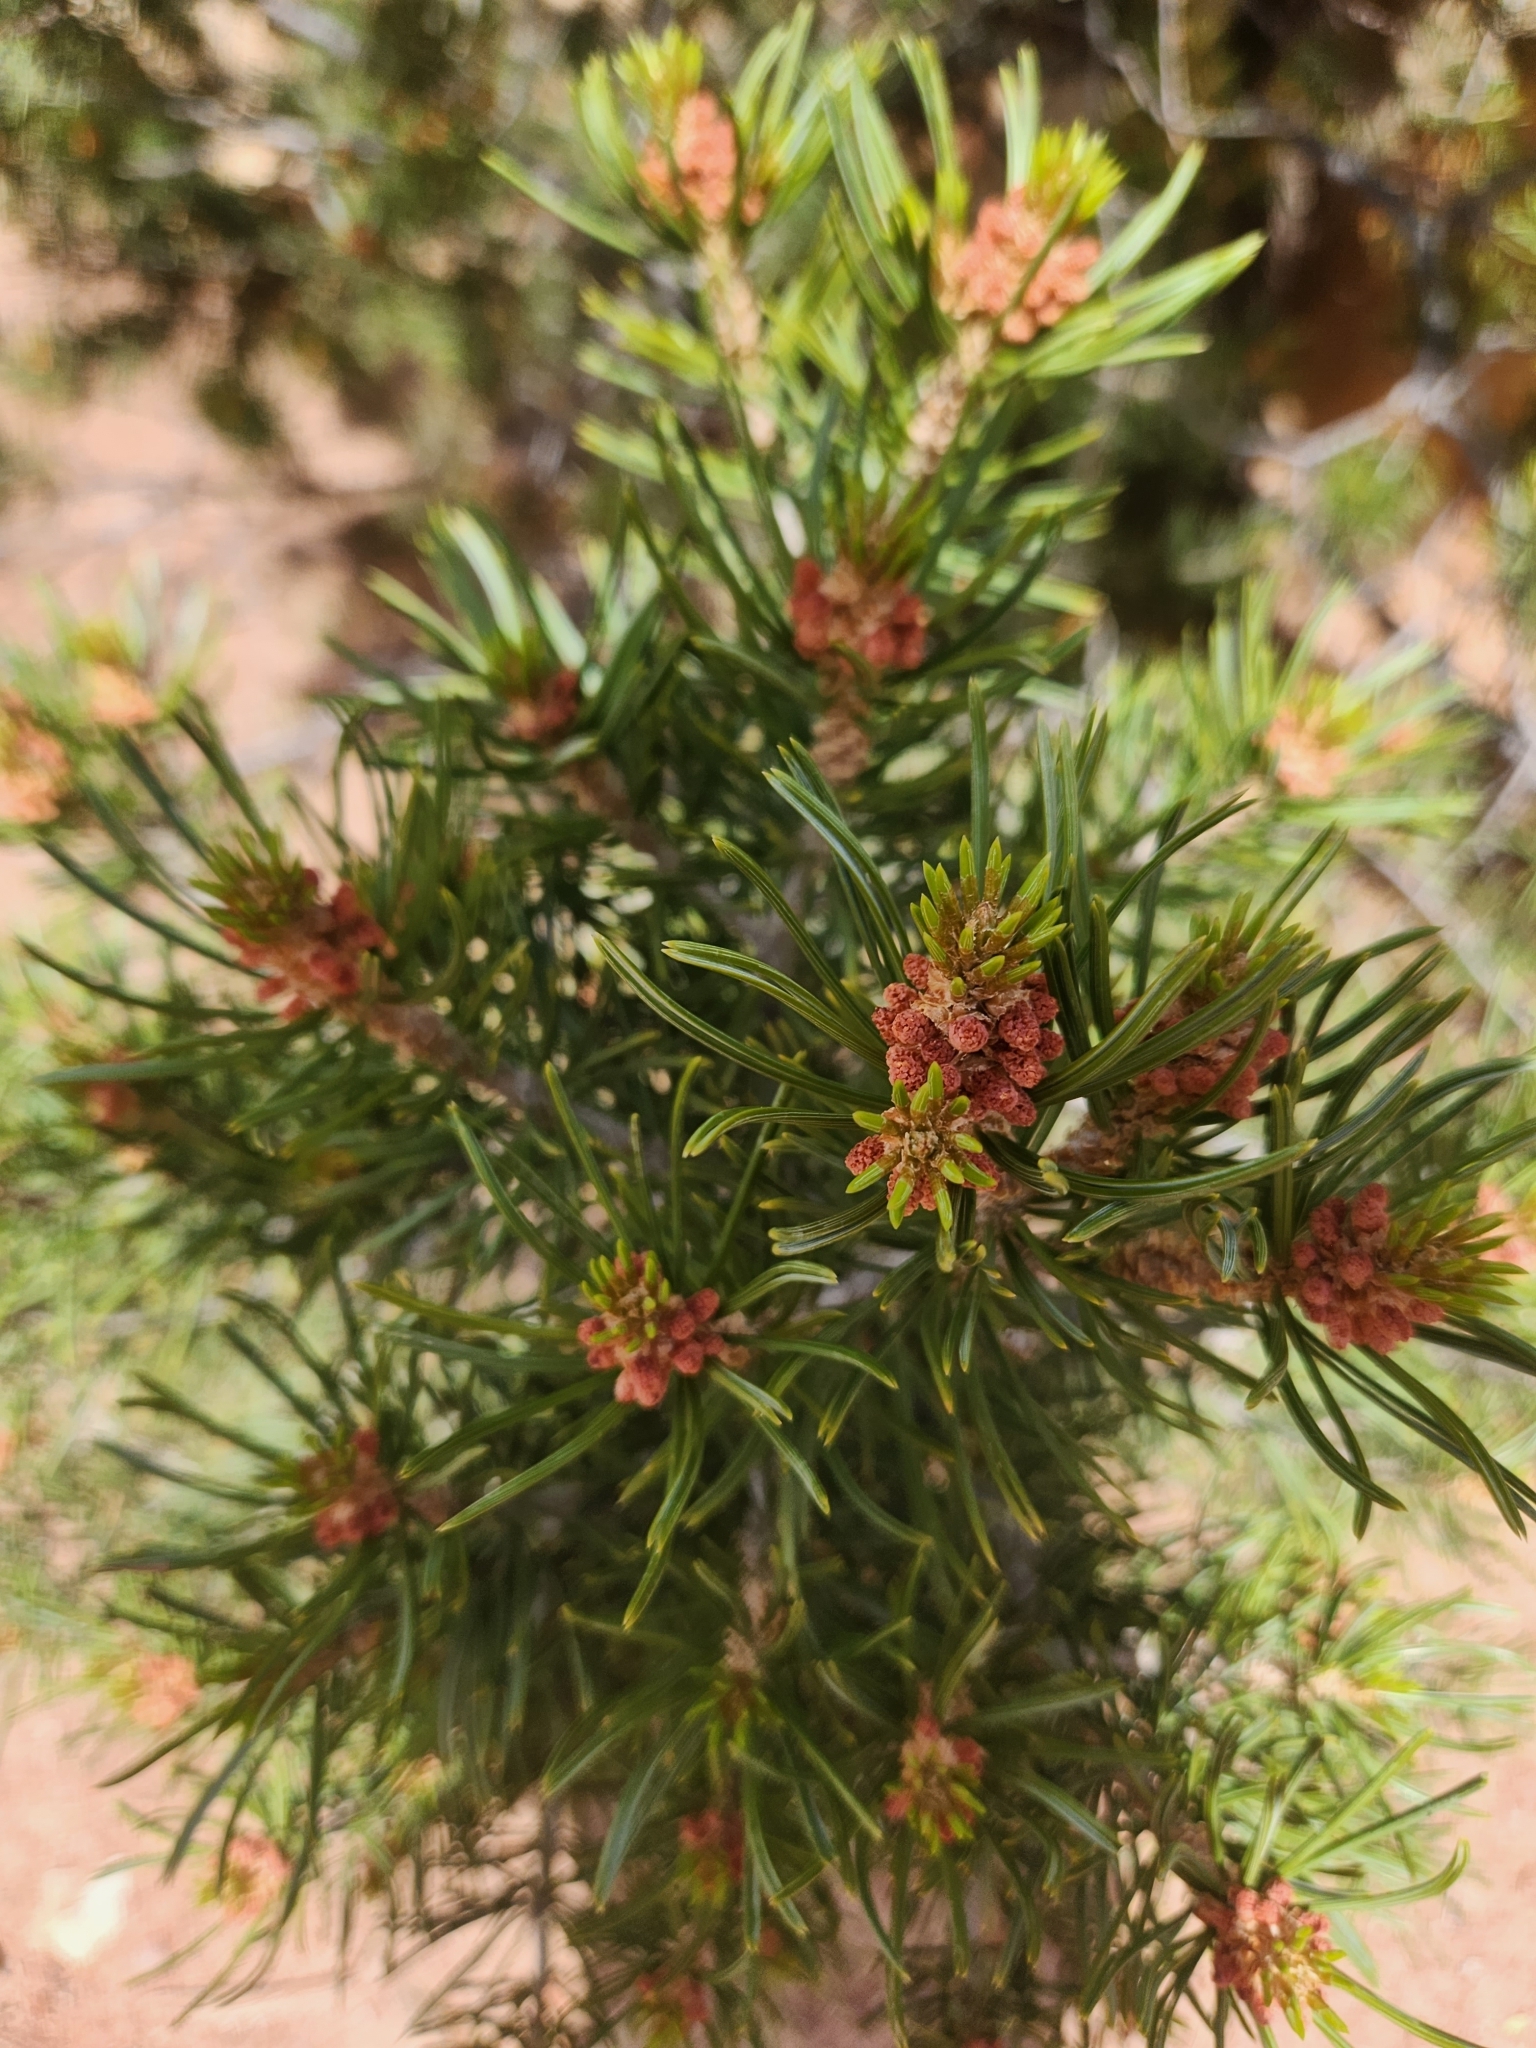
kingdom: Plantae
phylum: Tracheophyta
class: Pinopsida
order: Pinales
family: Pinaceae
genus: Pinus
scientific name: Pinus edulis
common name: Colorado pinyon
